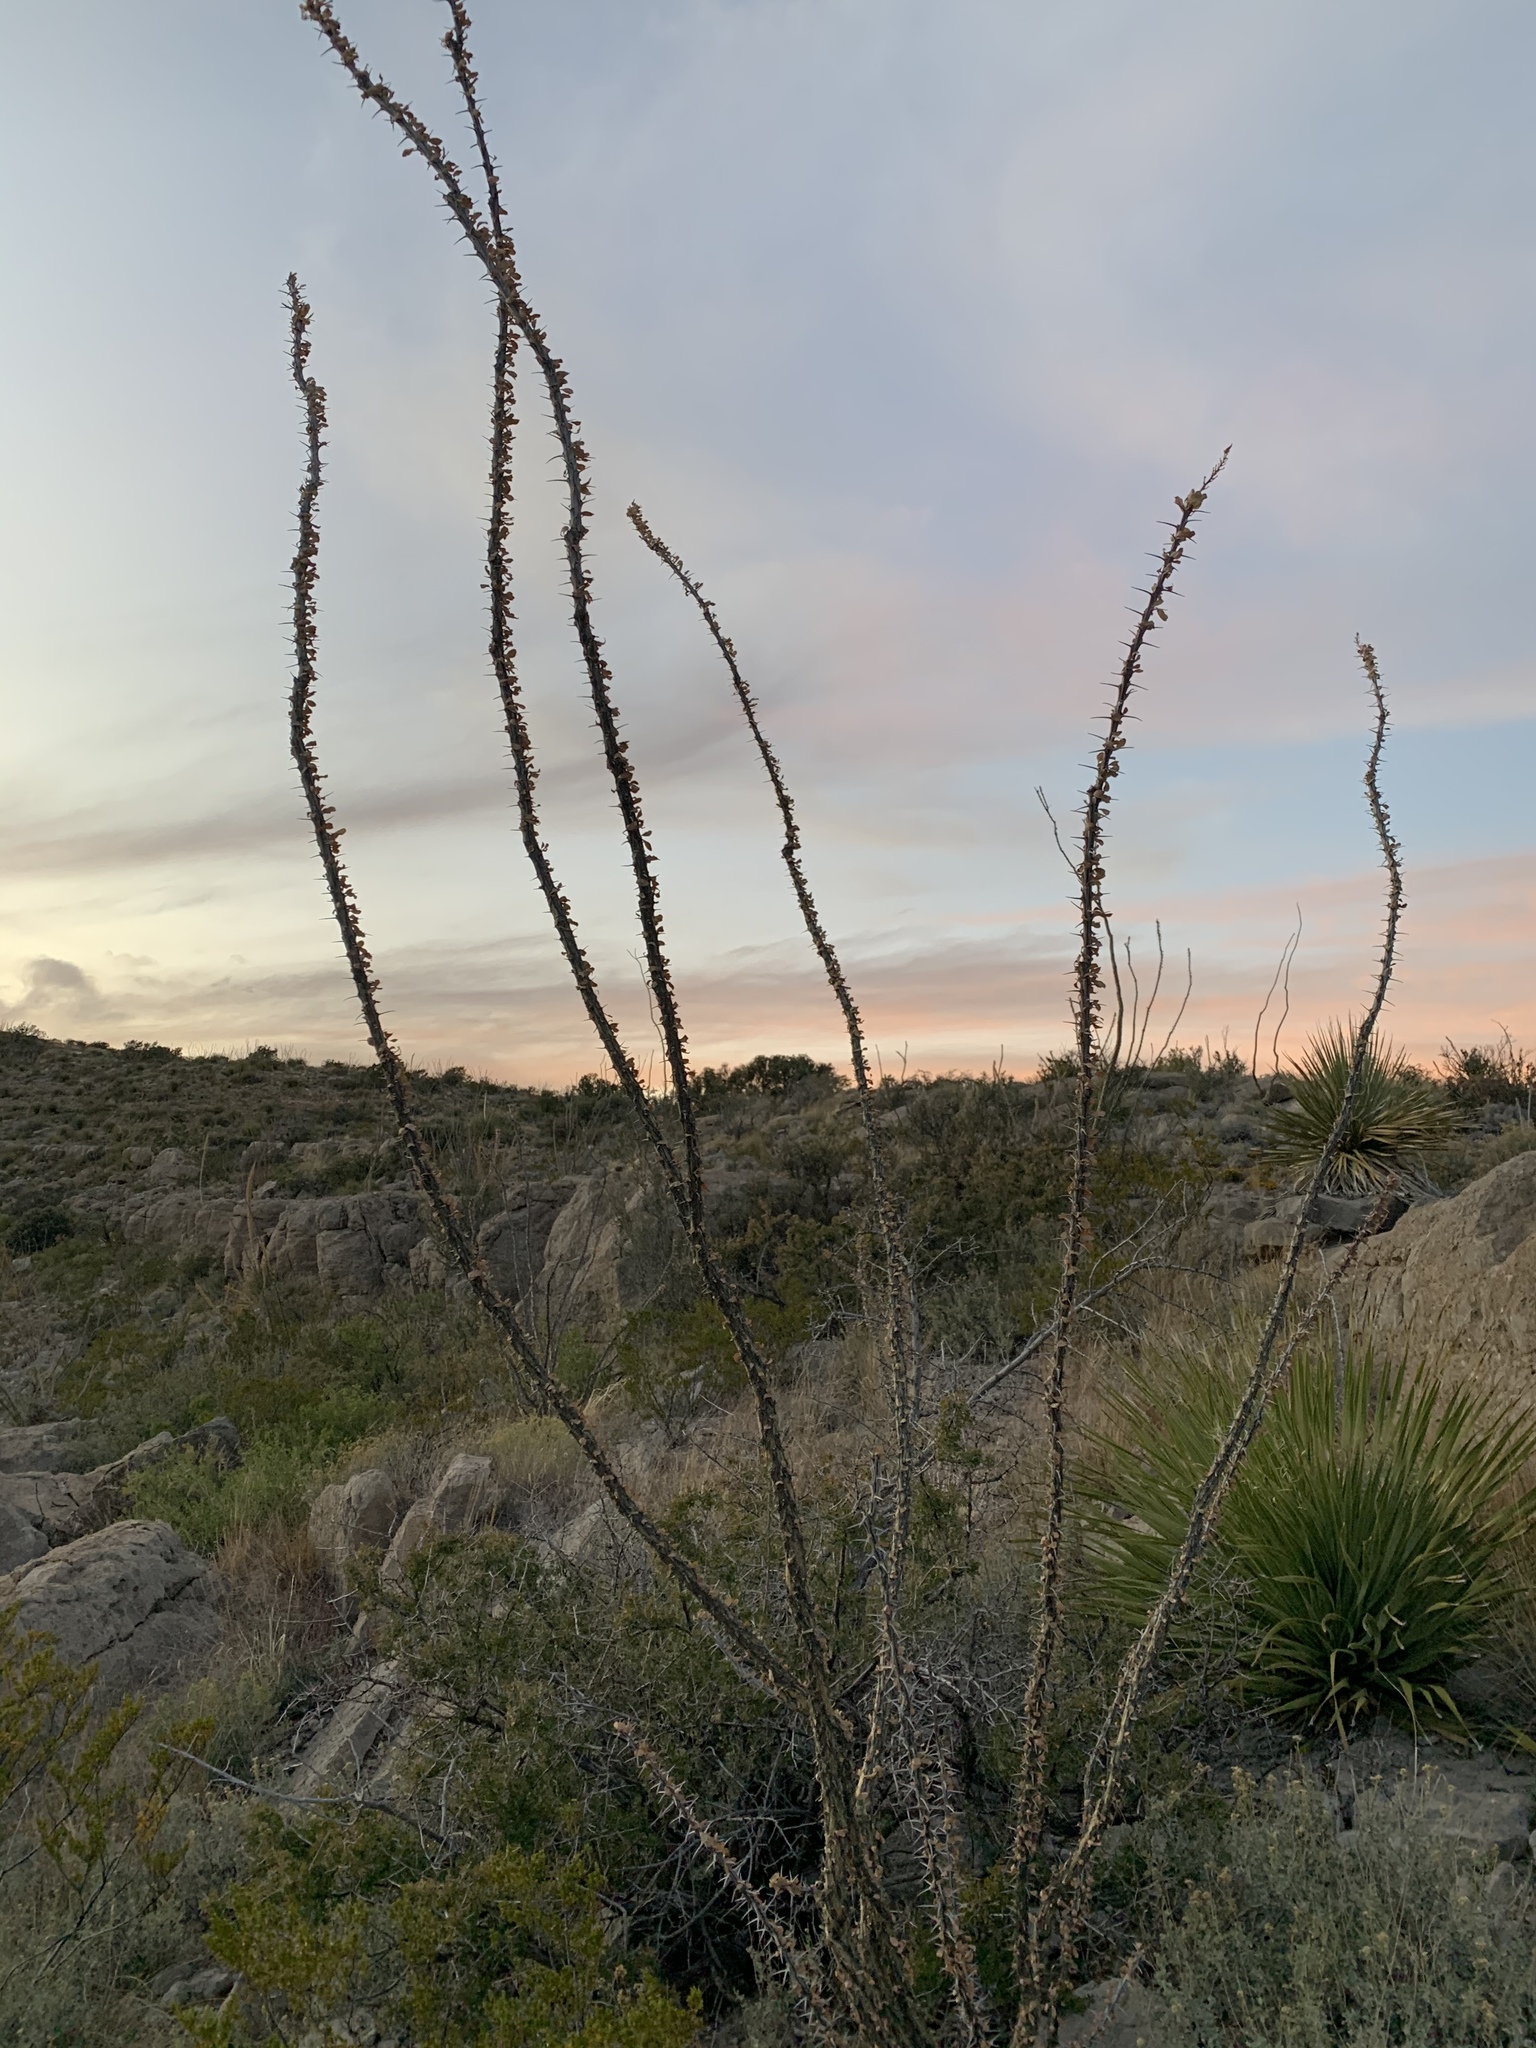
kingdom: Plantae
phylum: Tracheophyta
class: Magnoliopsida
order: Ericales
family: Fouquieriaceae
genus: Fouquieria
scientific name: Fouquieria splendens
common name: Vine-cactus
